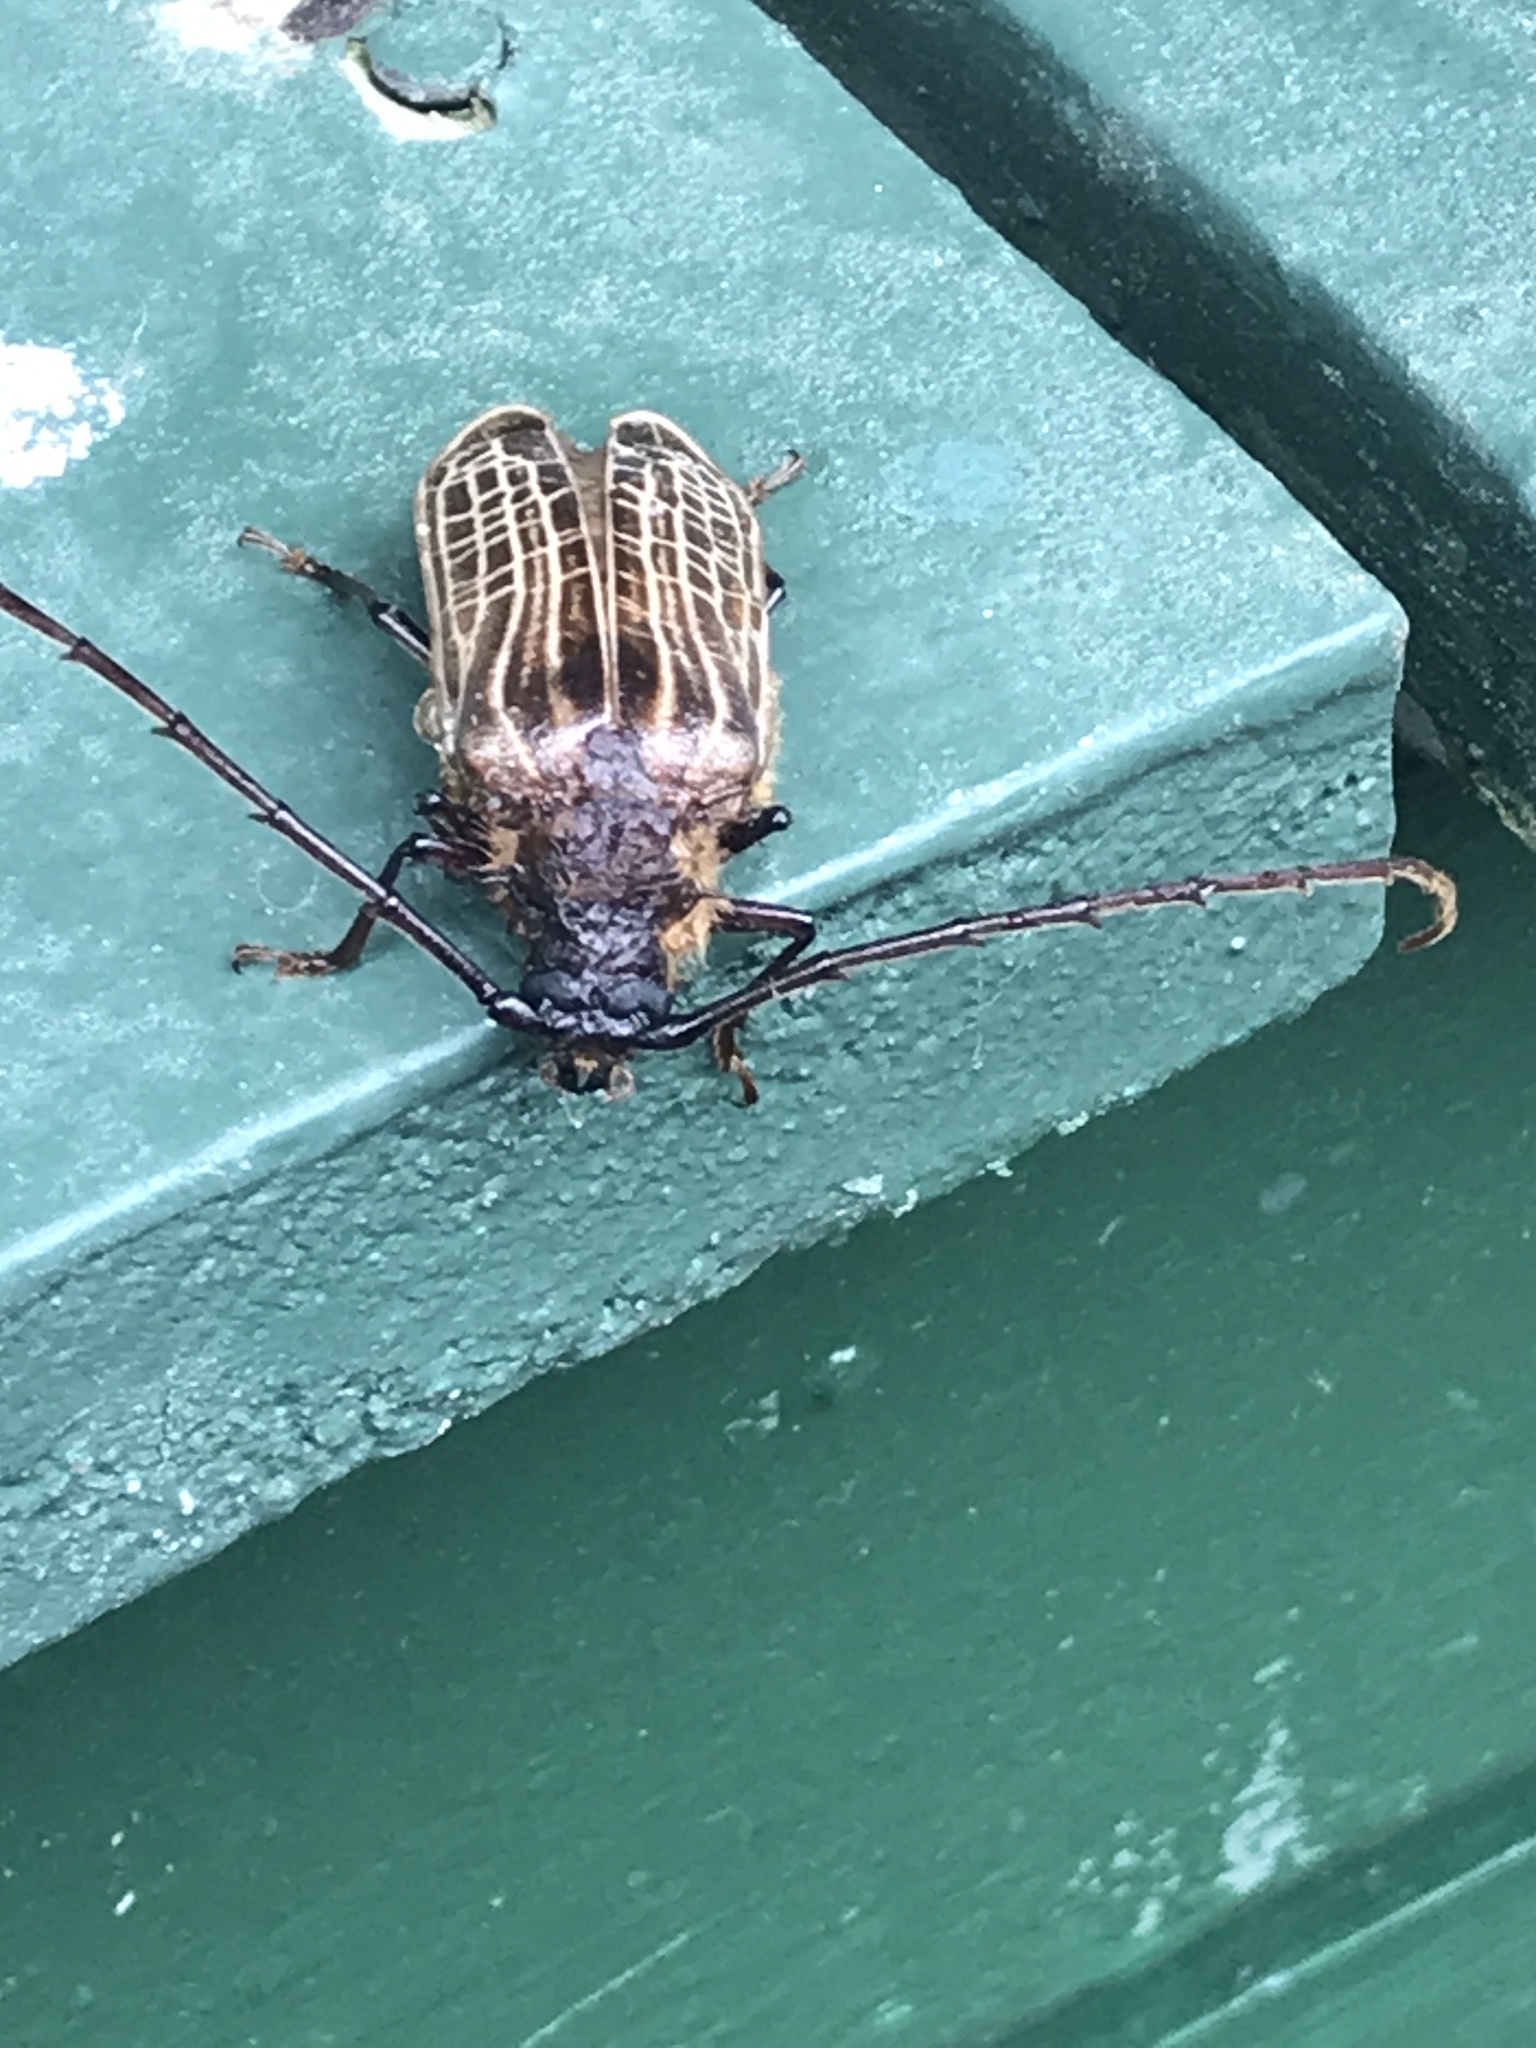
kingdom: Animalia
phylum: Arthropoda
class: Insecta
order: Coleoptera
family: Cerambycidae
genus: Prionoplus
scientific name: Prionoplus reticularis
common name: Huhu beetle
